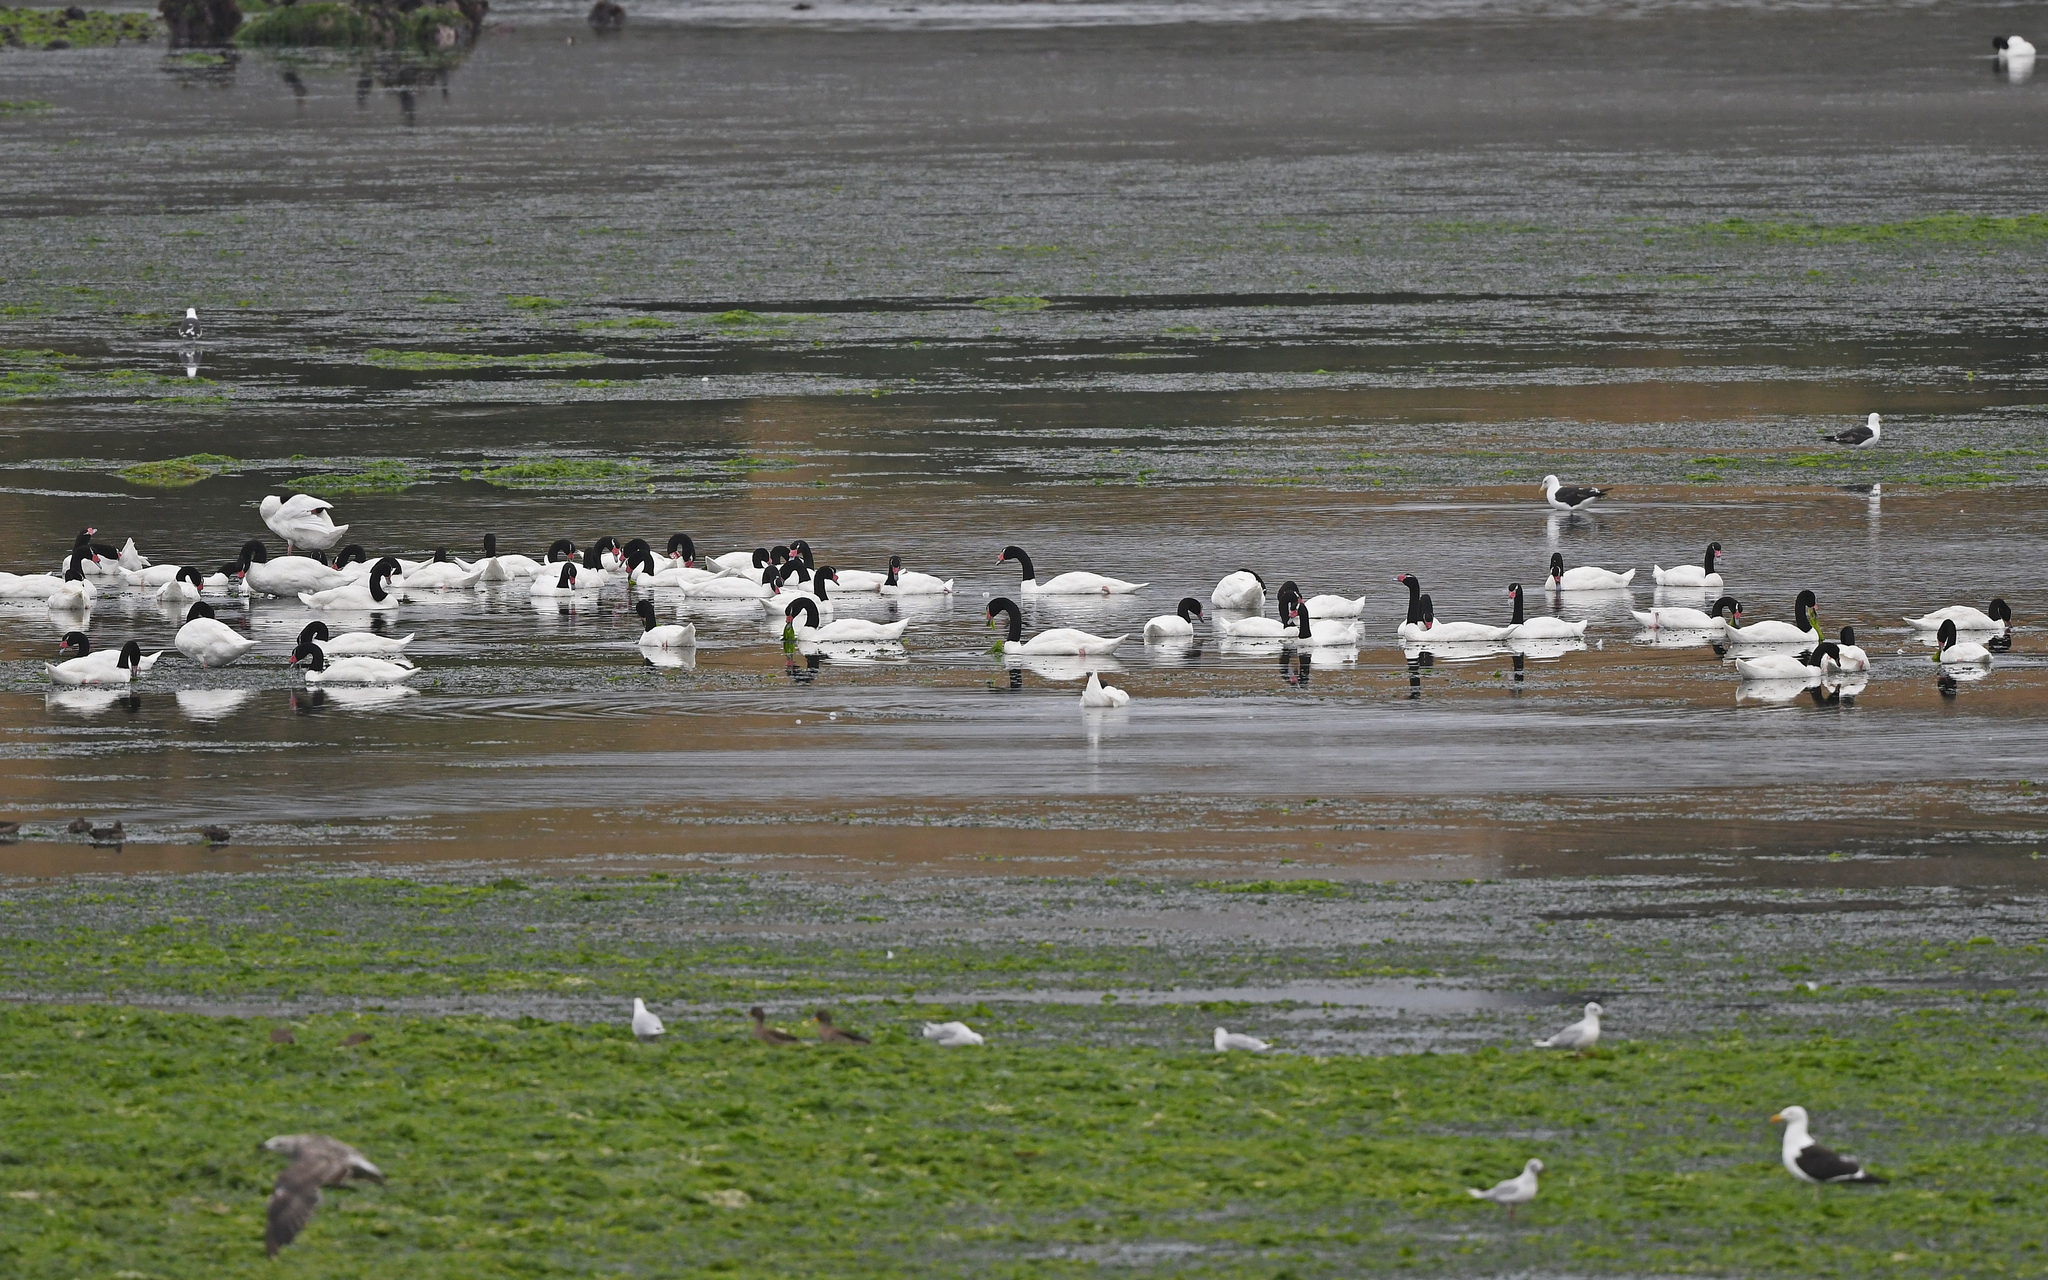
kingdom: Animalia
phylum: Chordata
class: Aves
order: Anseriformes
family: Anatidae
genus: Cygnus
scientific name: Cygnus melancoryphus
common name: Black-necked swan
